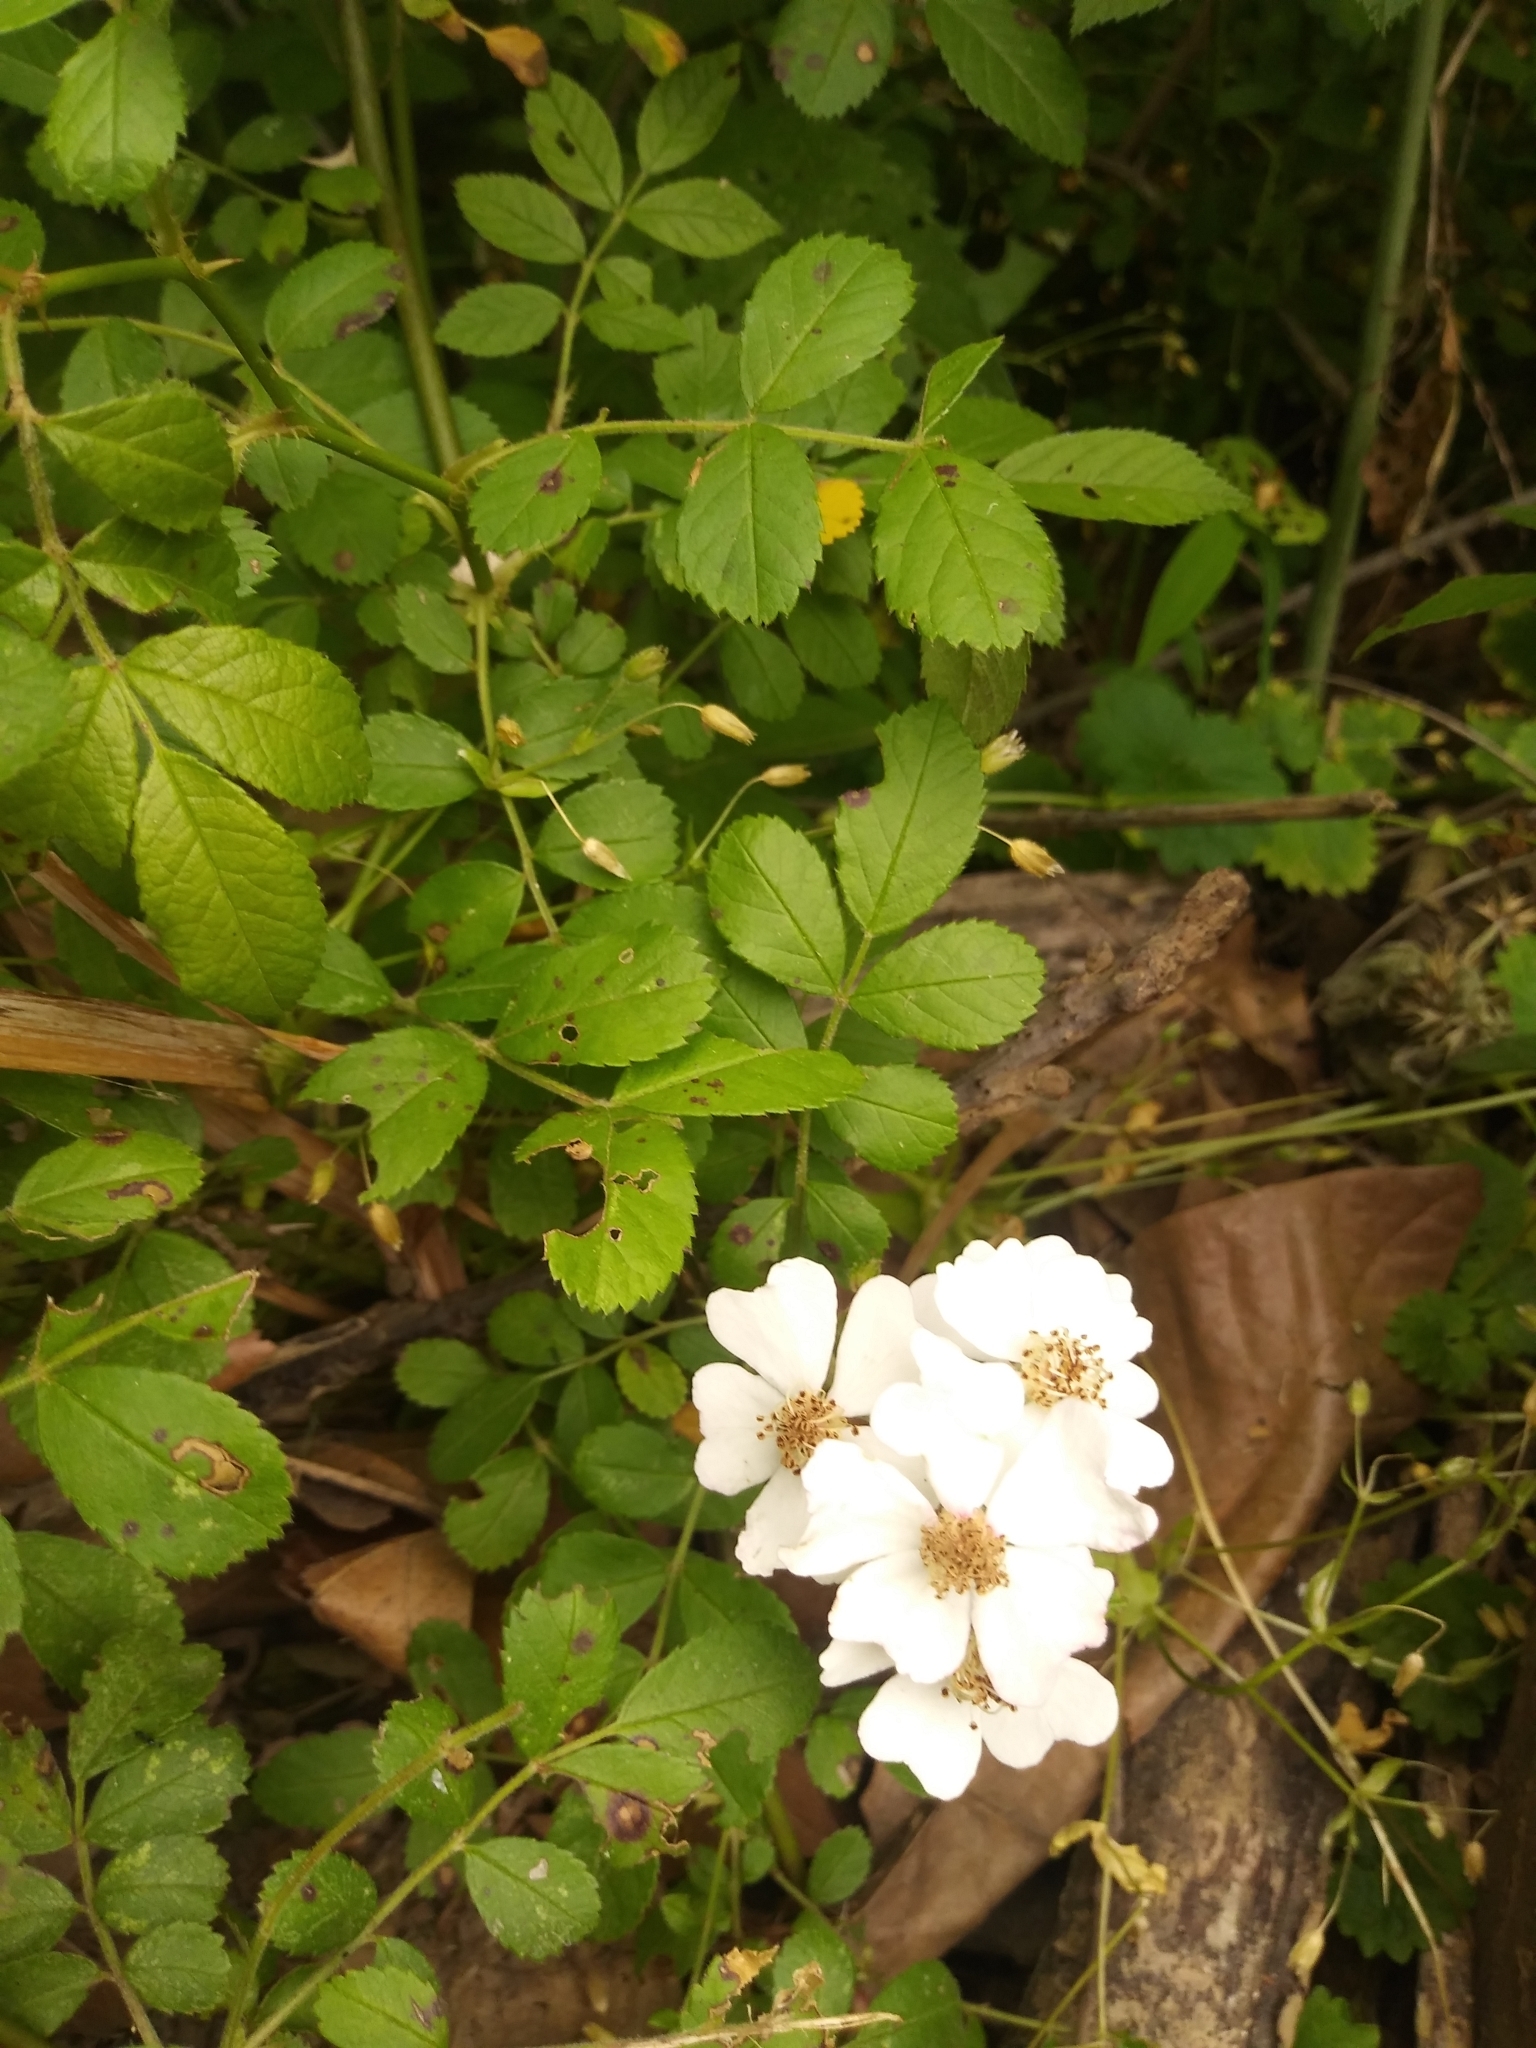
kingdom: Plantae
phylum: Tracheophyta
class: Magnoliopsida
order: Rosales
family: Rosaceae
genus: Rosa
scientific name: Rosa multiflora
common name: Multiflora rose
